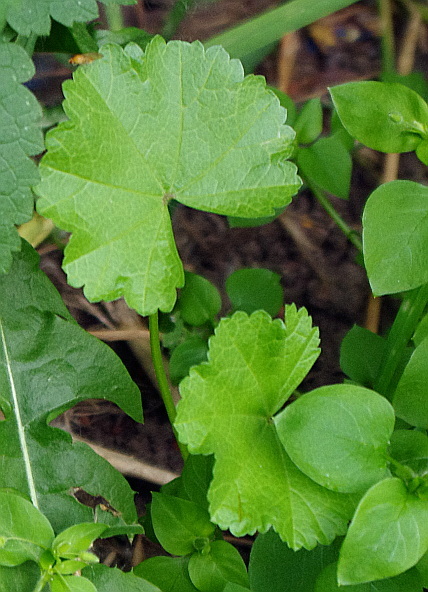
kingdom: Plantae
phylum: Tracheophyta
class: Magnoliopsida
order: Malvales
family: Malvaceae
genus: Malva
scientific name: Malva pusilla
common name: Small mallow
